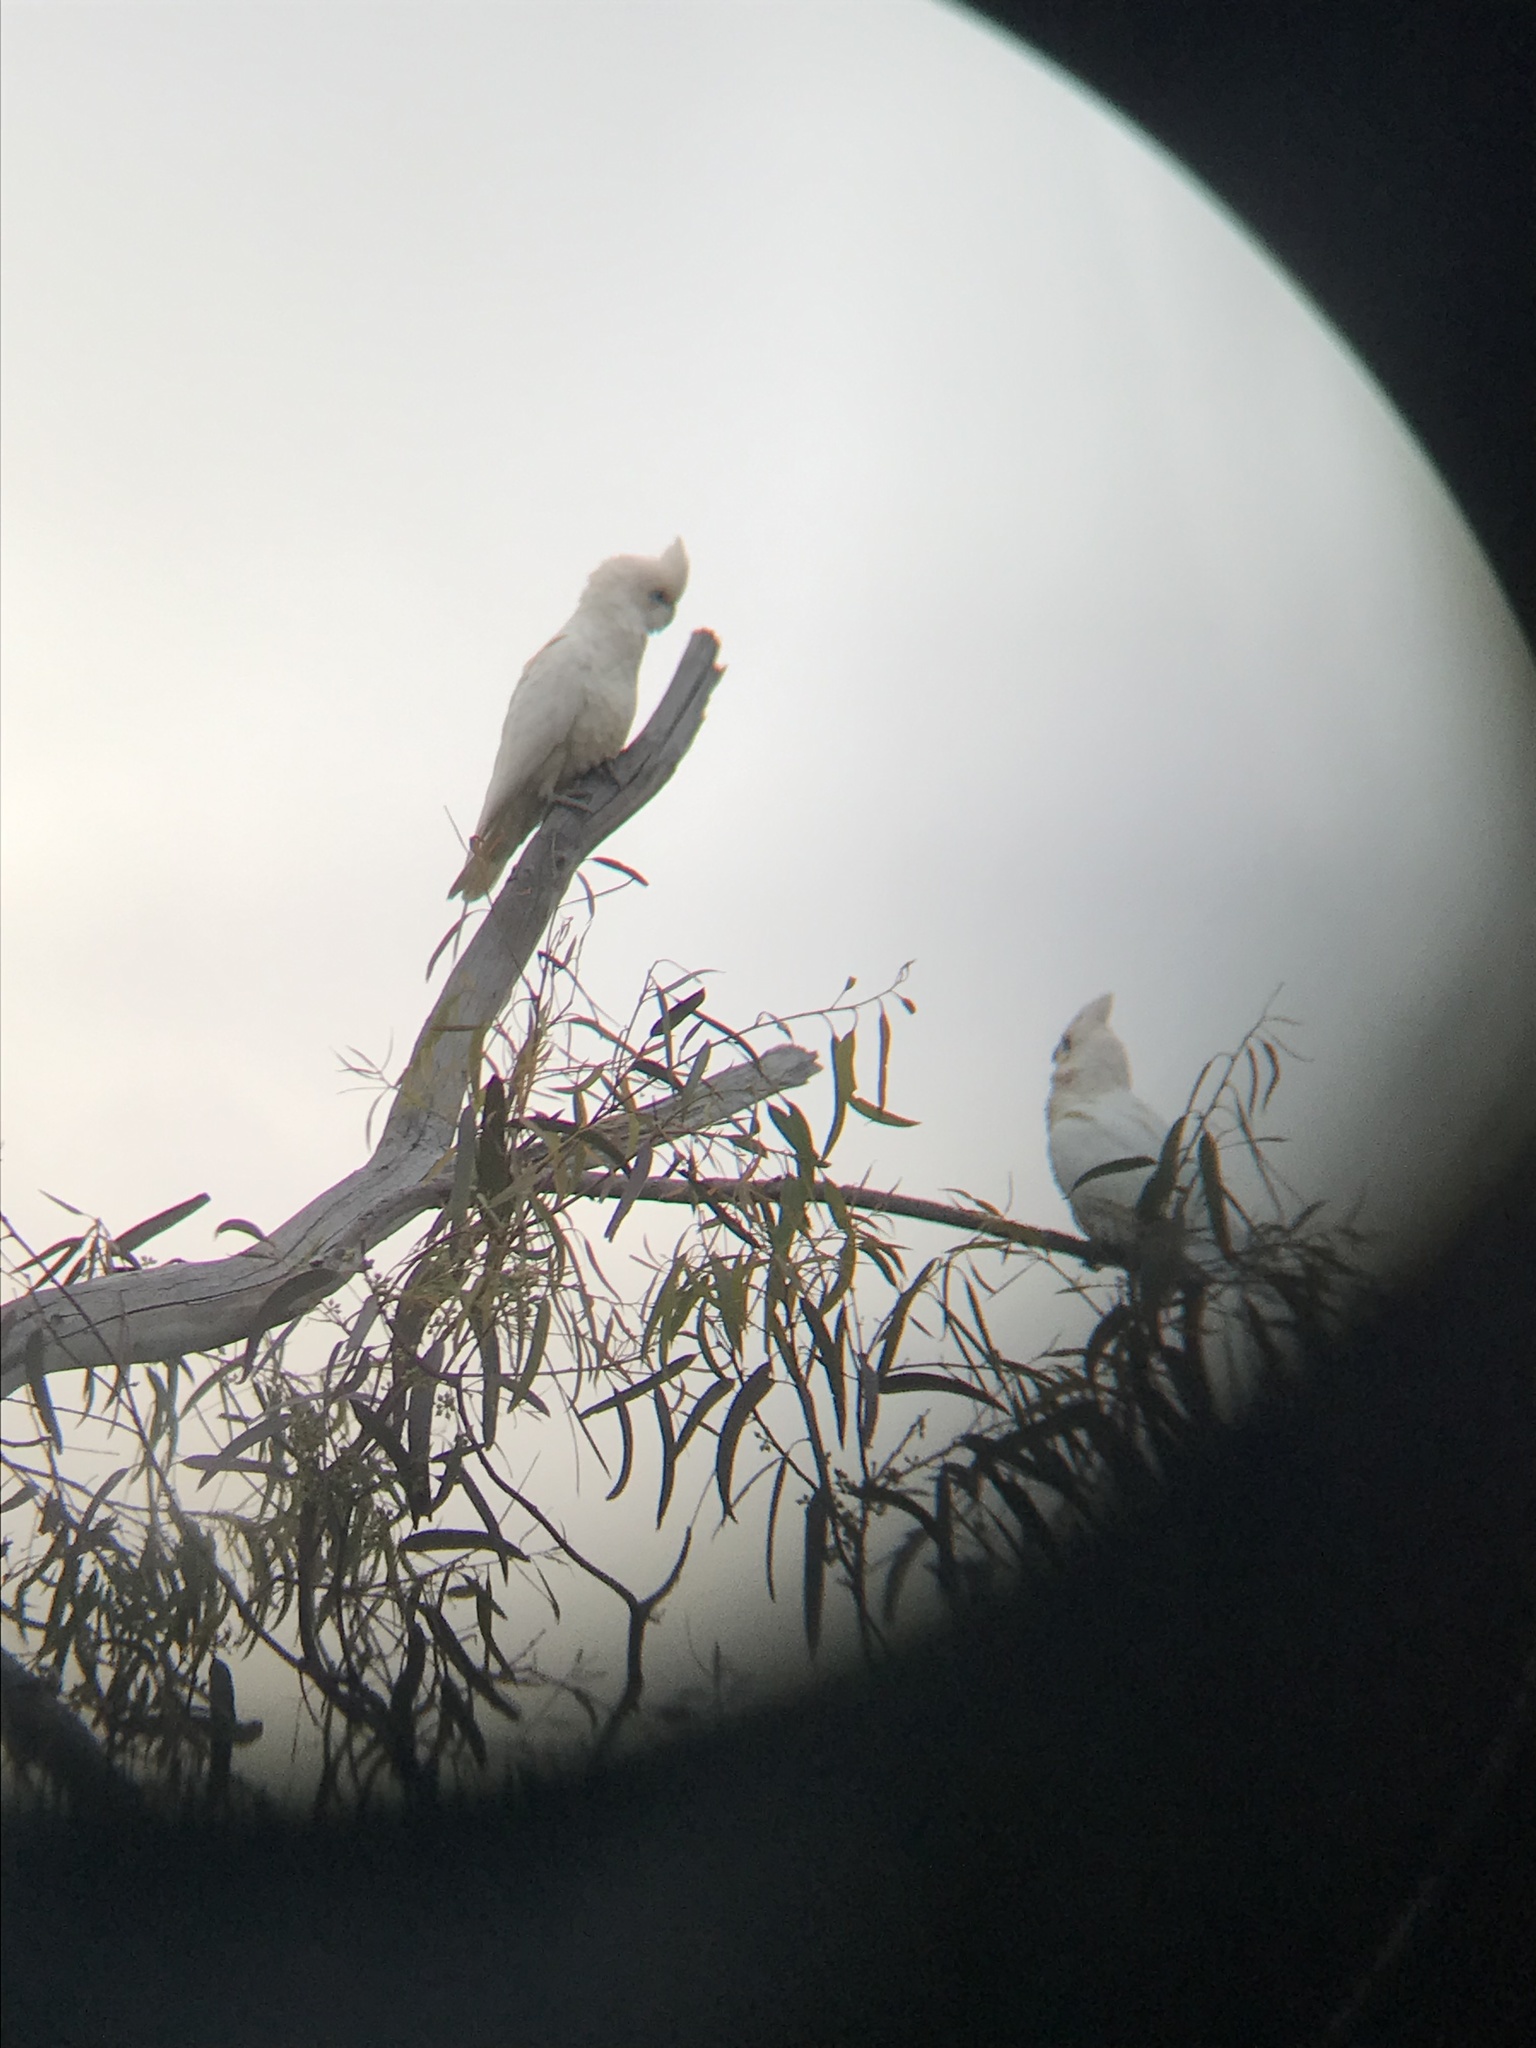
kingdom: Animalia
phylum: Chordata
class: Aves
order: Psittaciformes
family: Psittacidae
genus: Cacatua
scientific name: Cacatua sanguinea
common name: Little corella
